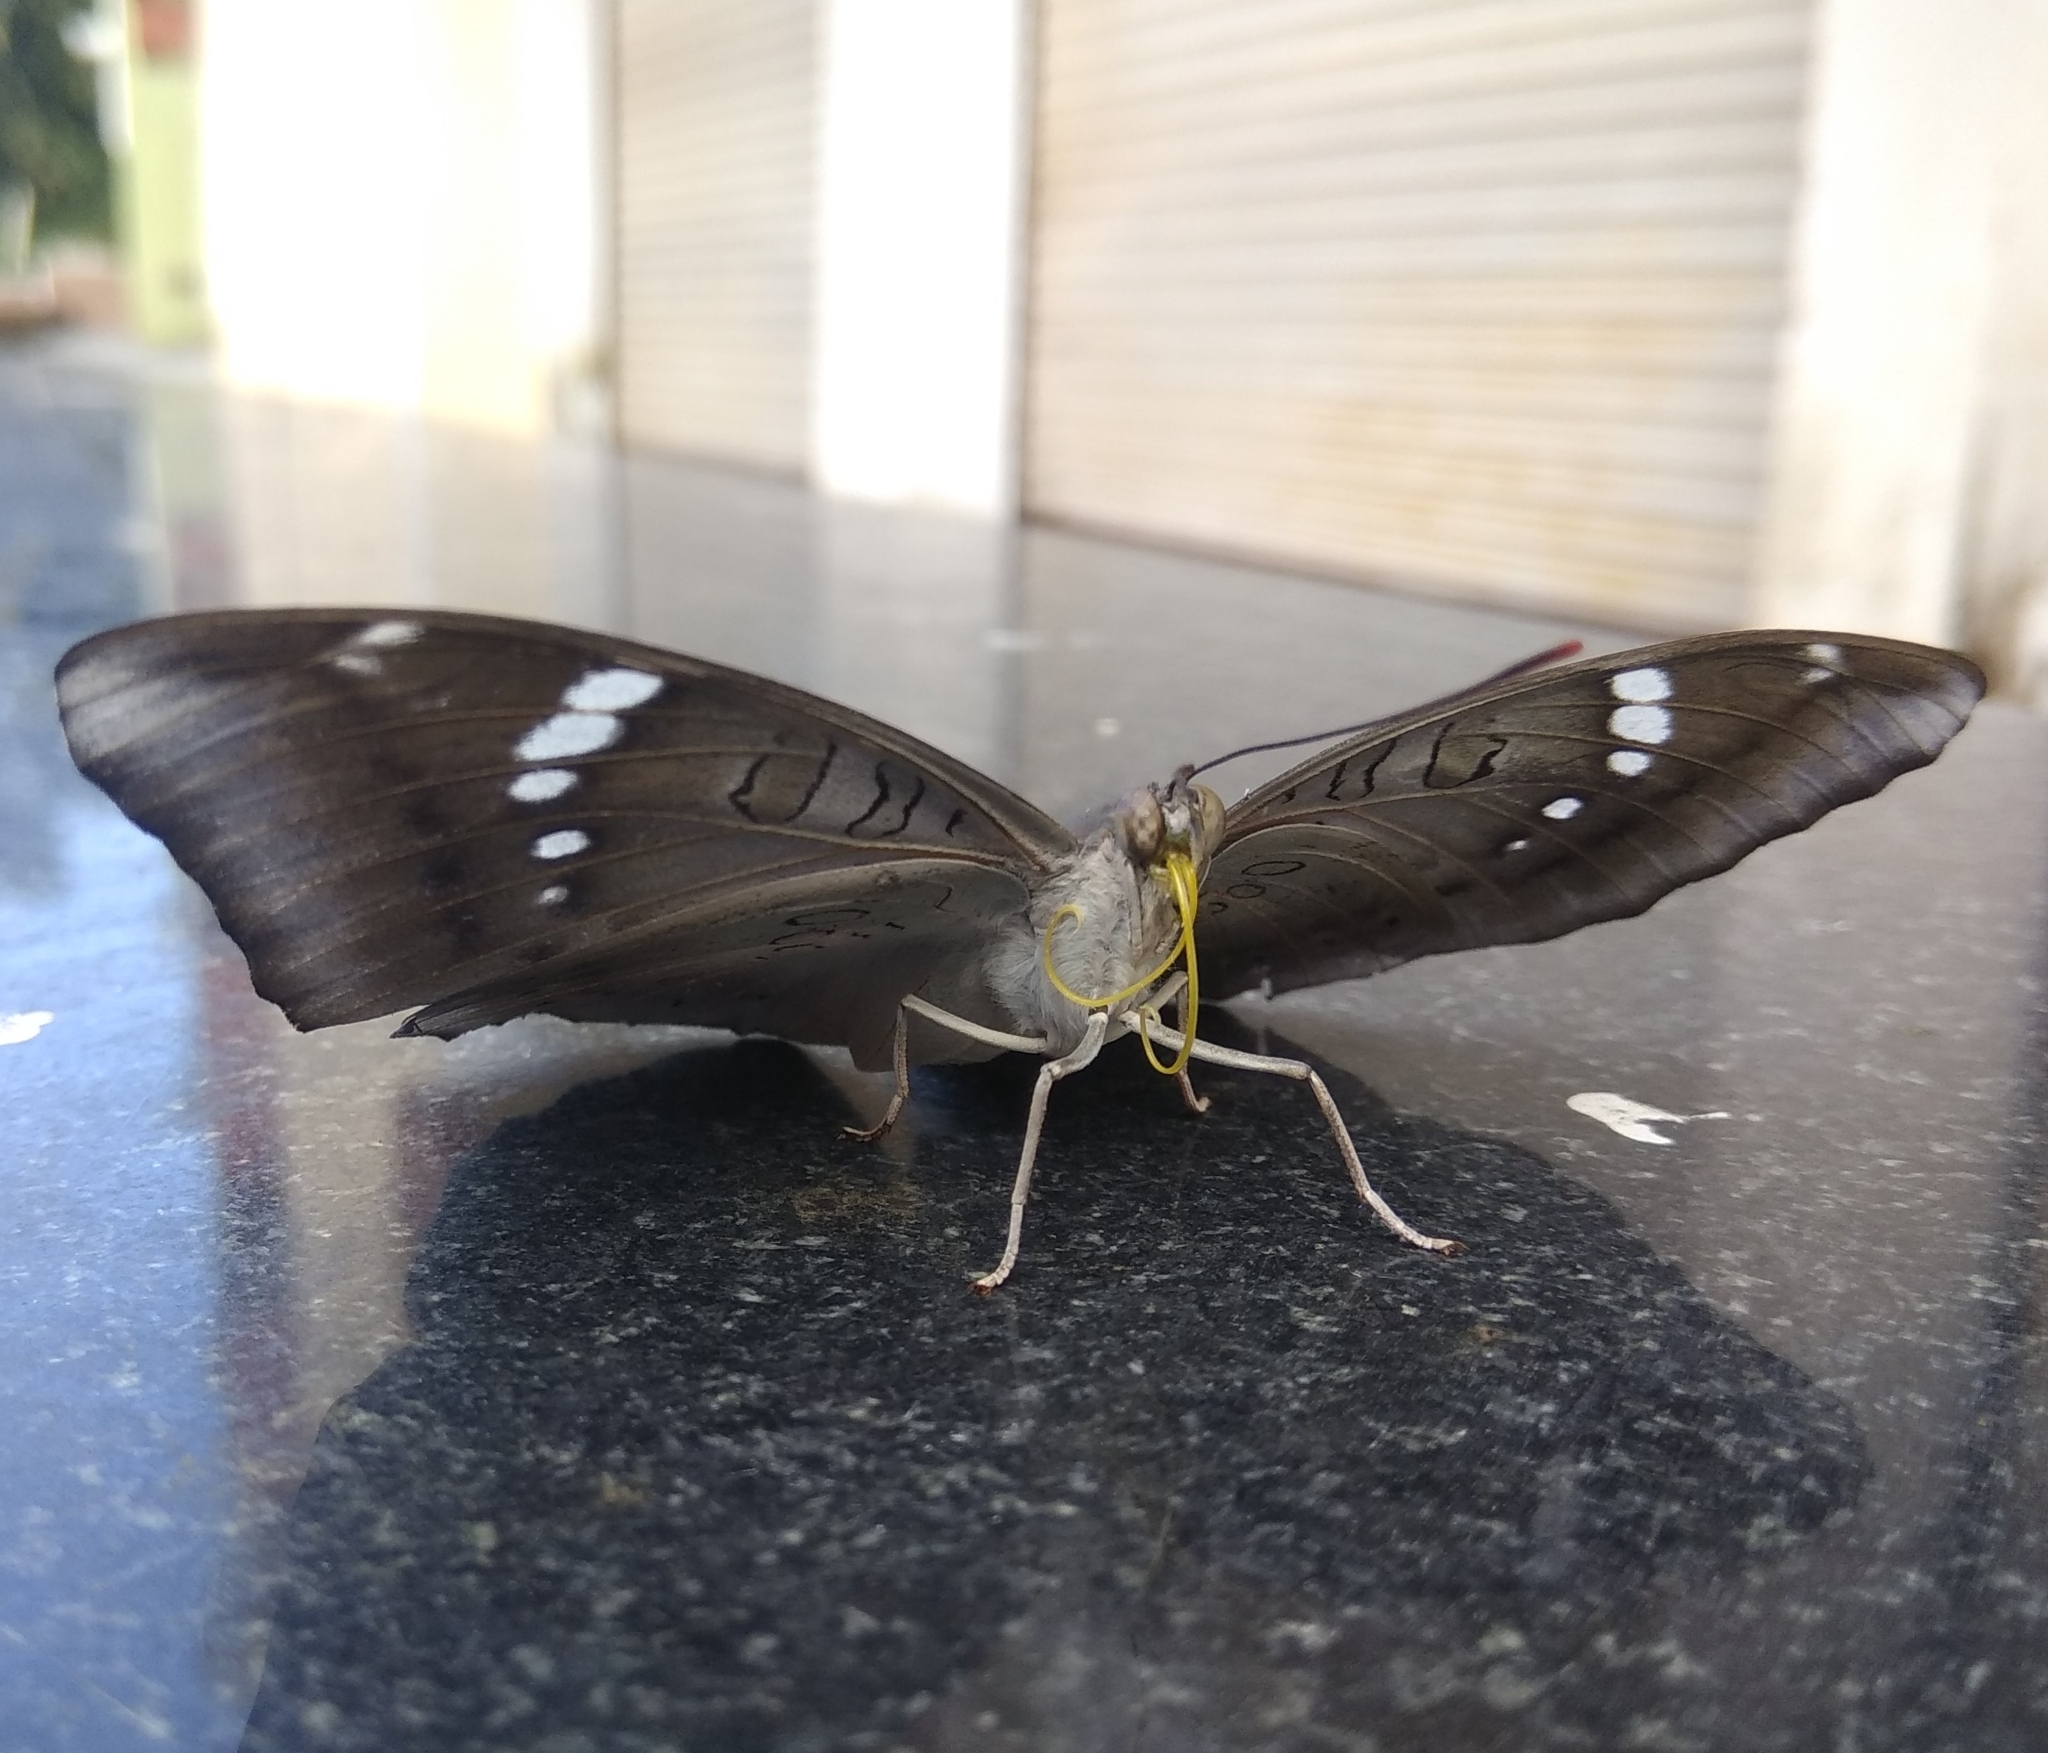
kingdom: Animalia
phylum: Arthropoda
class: Insecta
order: Lepidoptera
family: Nymphalidae
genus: Euthalia
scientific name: Euthalia aconthea
